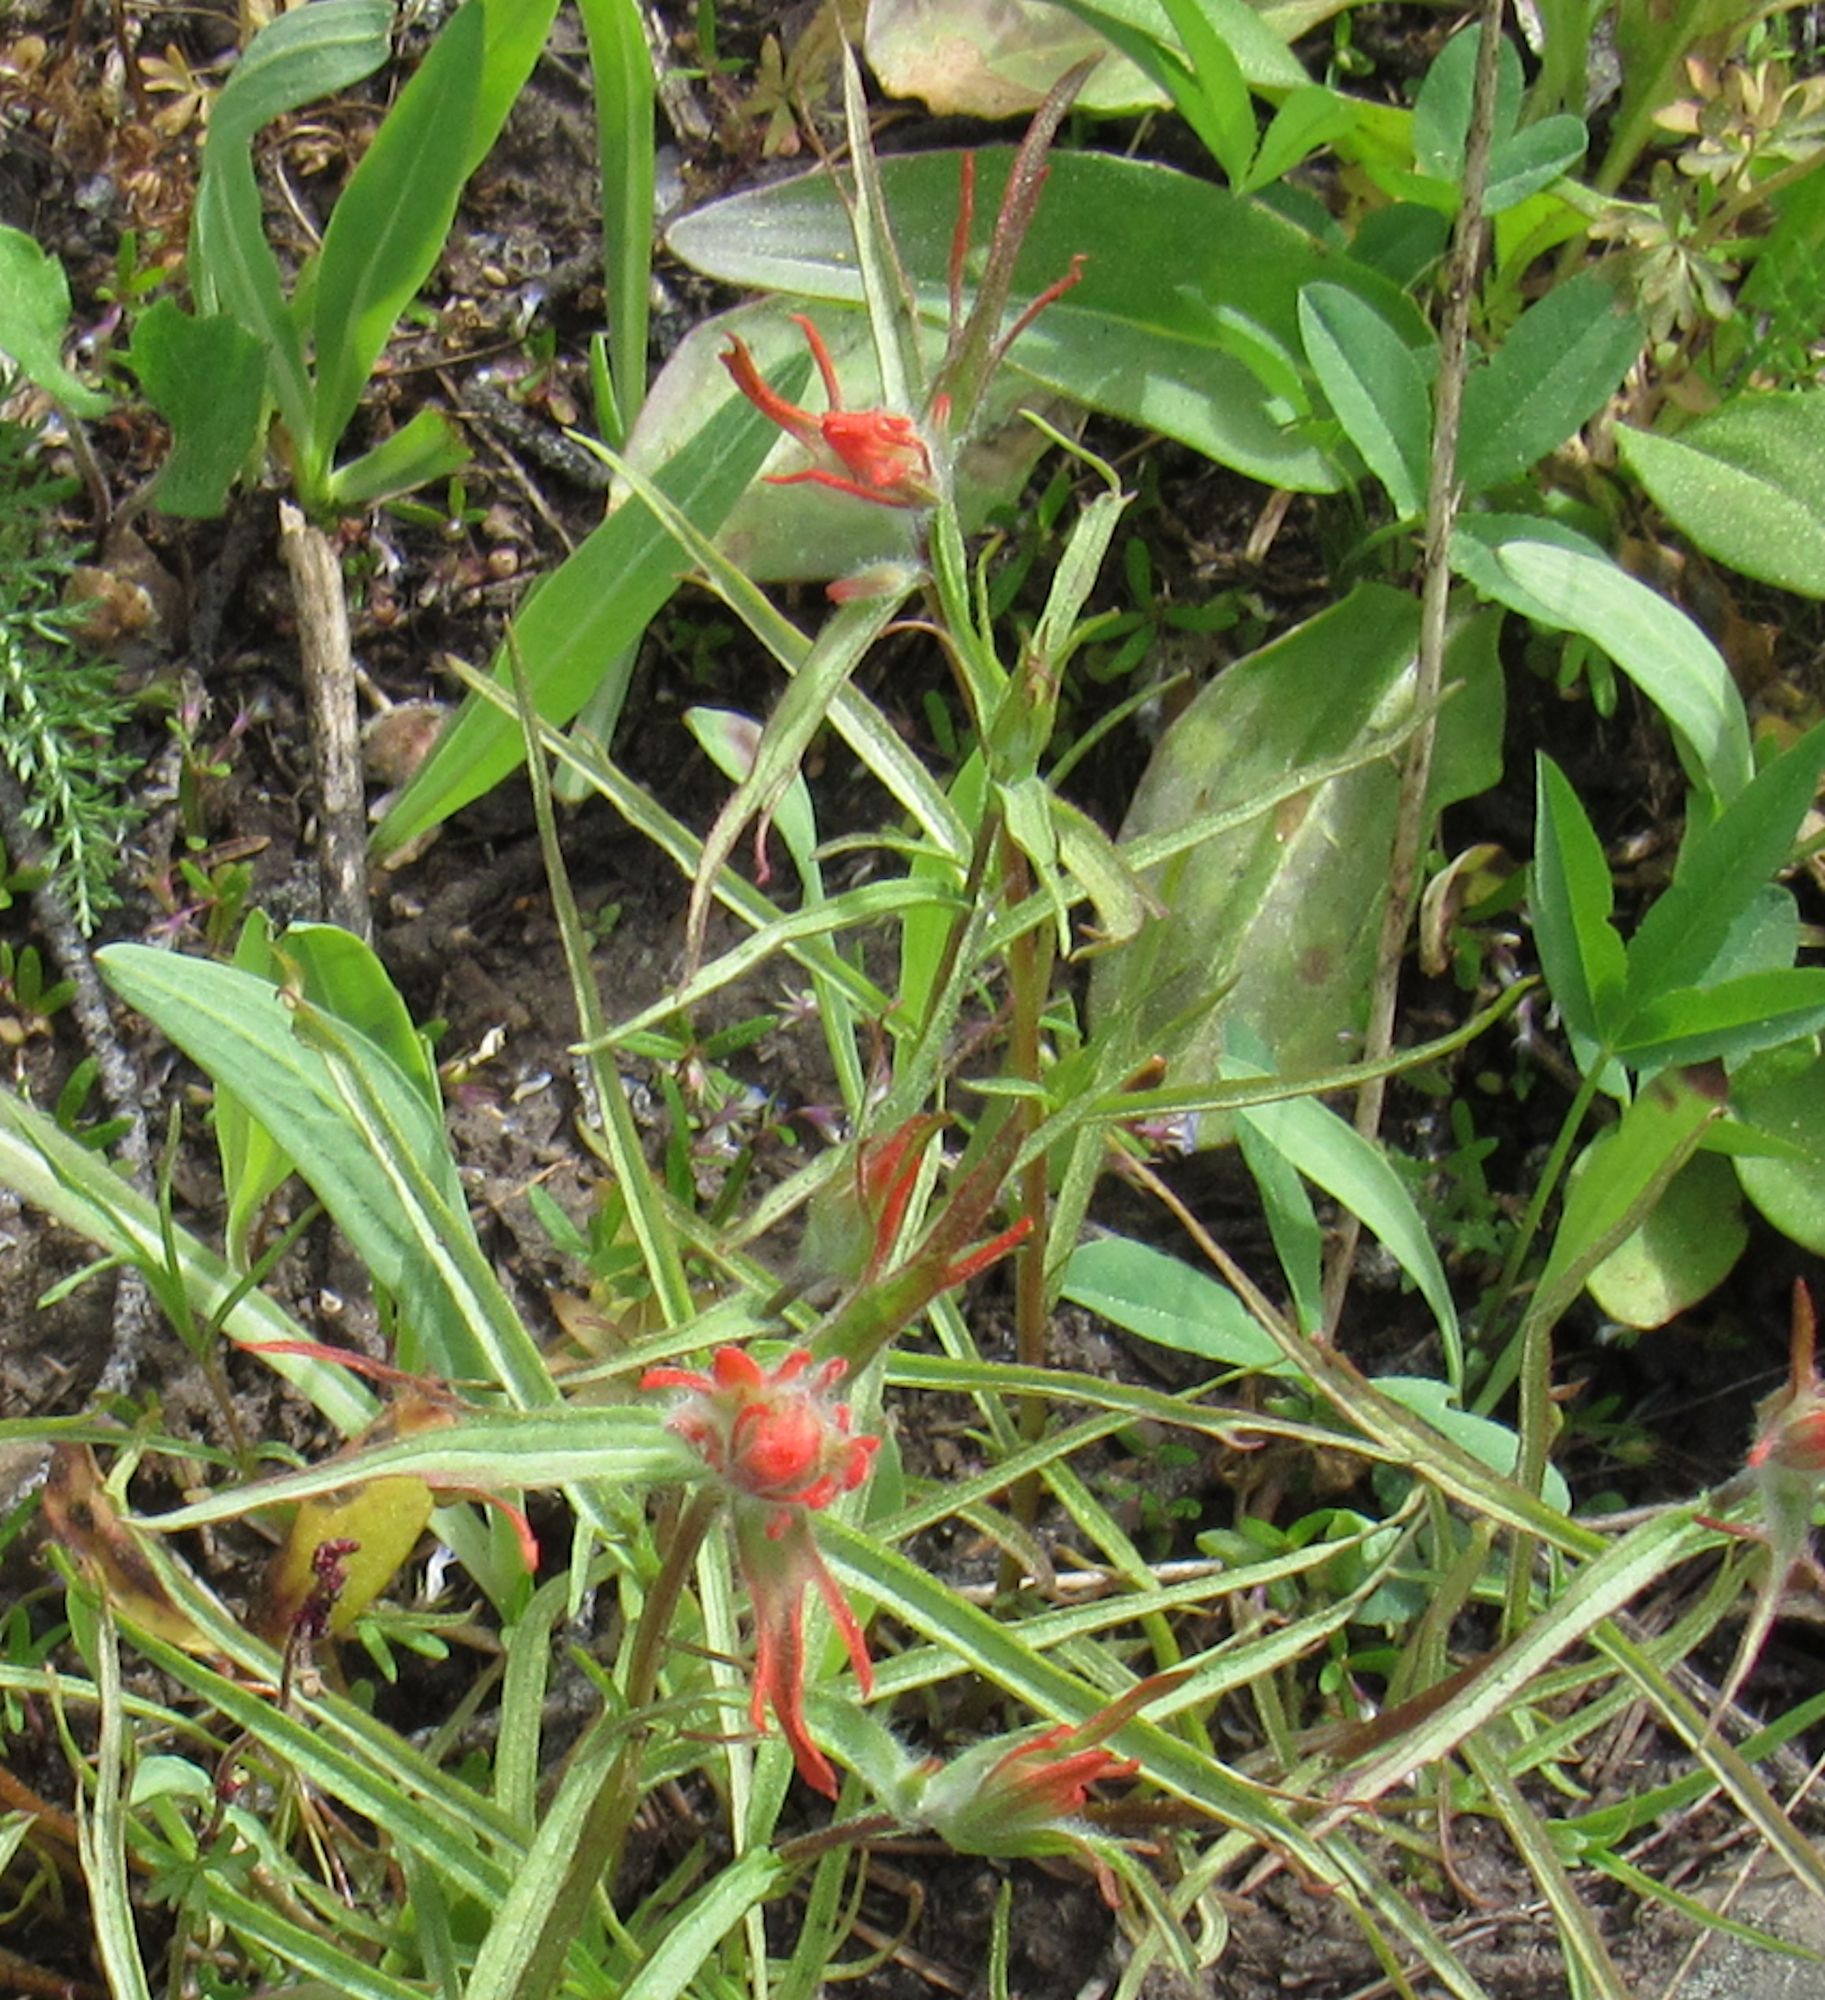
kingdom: Plantae
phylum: Tracheophyta
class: Magnoliopsida
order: Lamiales
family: Orobanchaceae
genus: Castilleja
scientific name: Castilleja miniata
